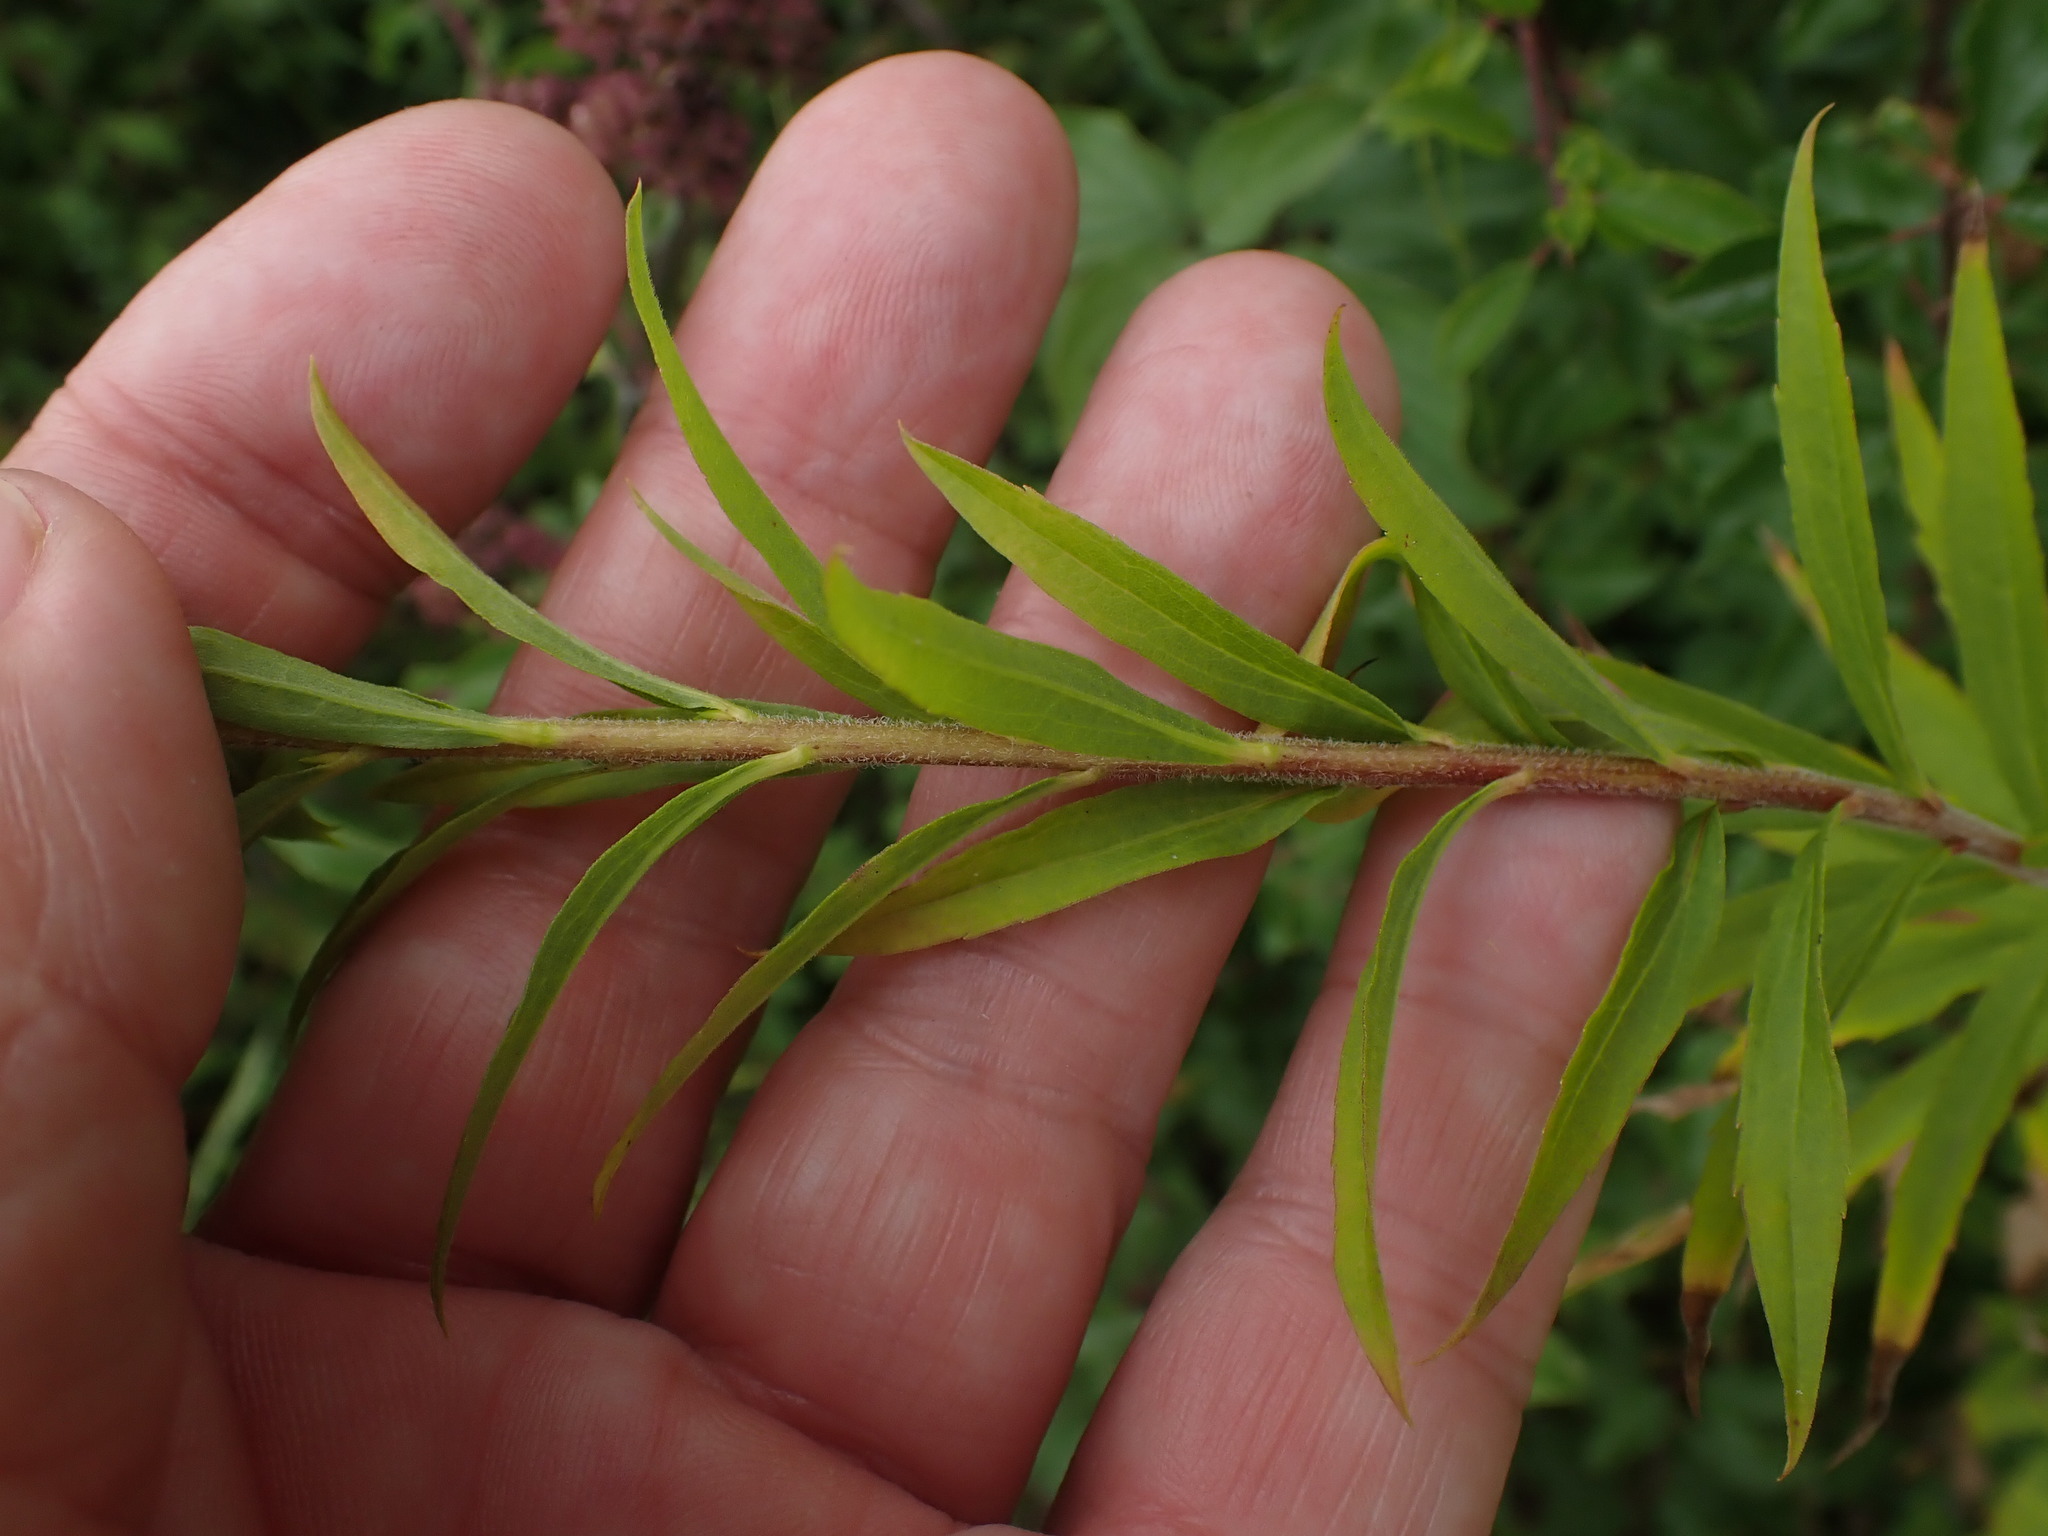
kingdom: Plantae
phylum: Tracheophyta
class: Magnoliopsida
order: Asterales
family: Asteraceae
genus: Solidago
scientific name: Solidago canadensis
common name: Canada goldenrod
